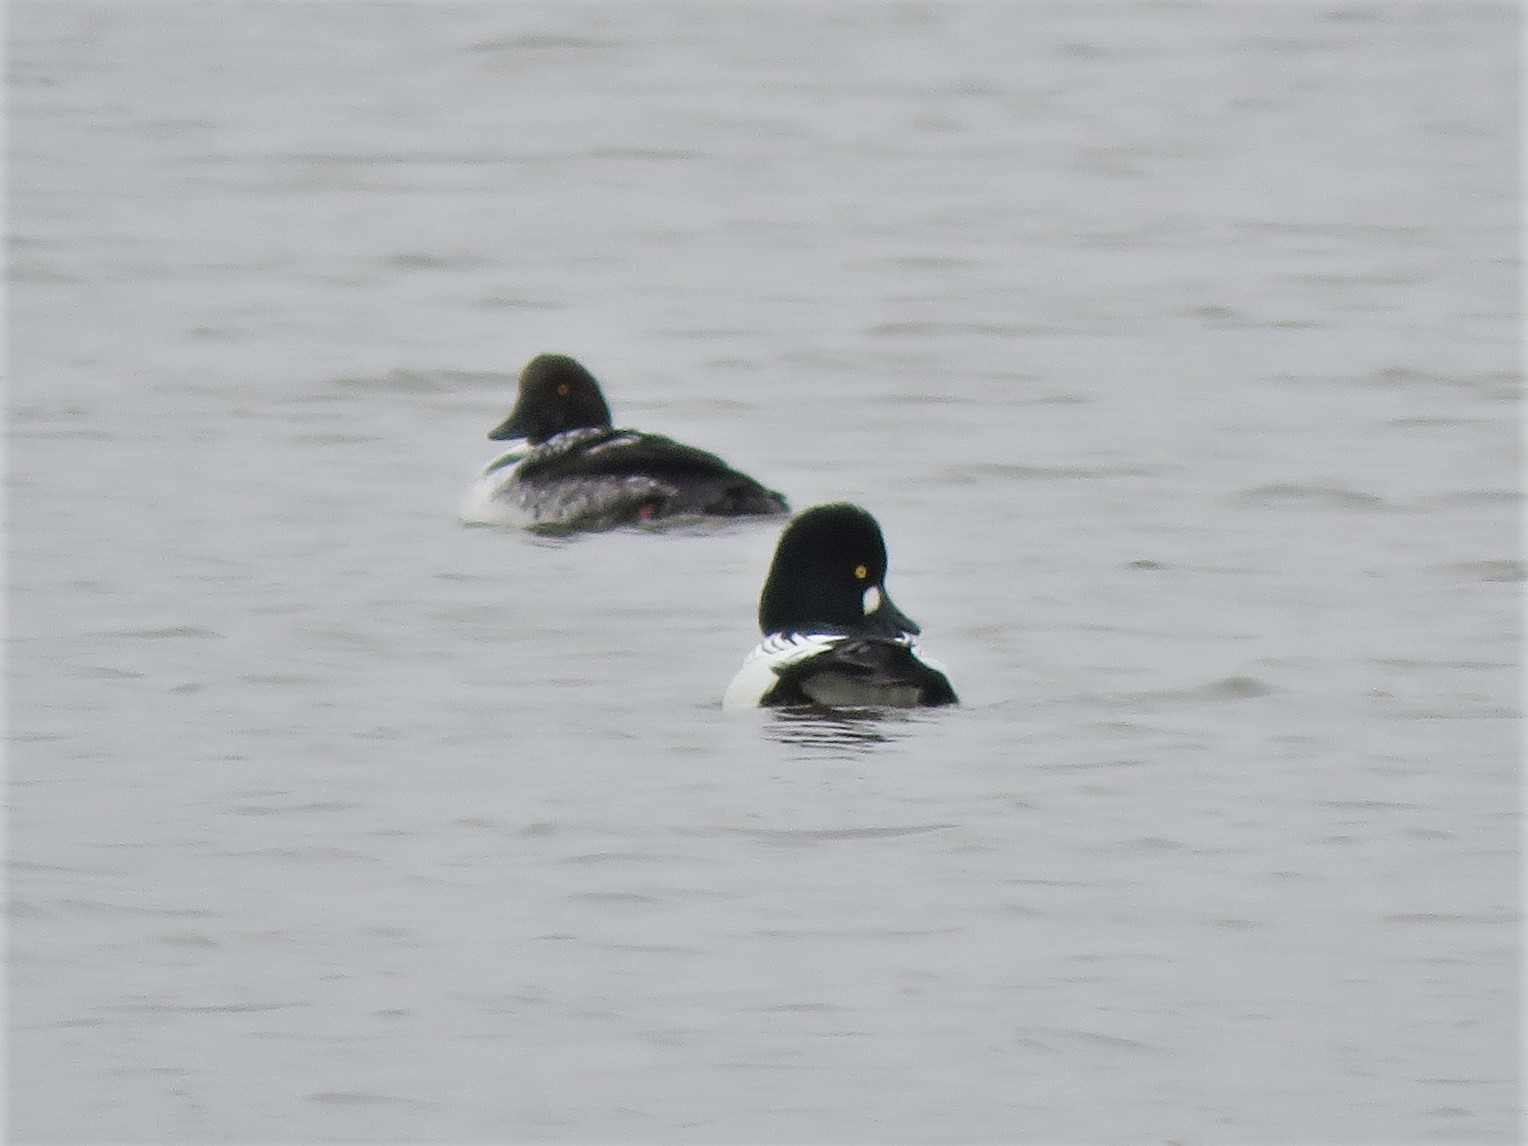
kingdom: Animalia
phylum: Chordata
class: Aves
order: Anseriformes
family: Anatidae
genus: Bucephala
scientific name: Bucephala clangula
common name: Common goldeneye
